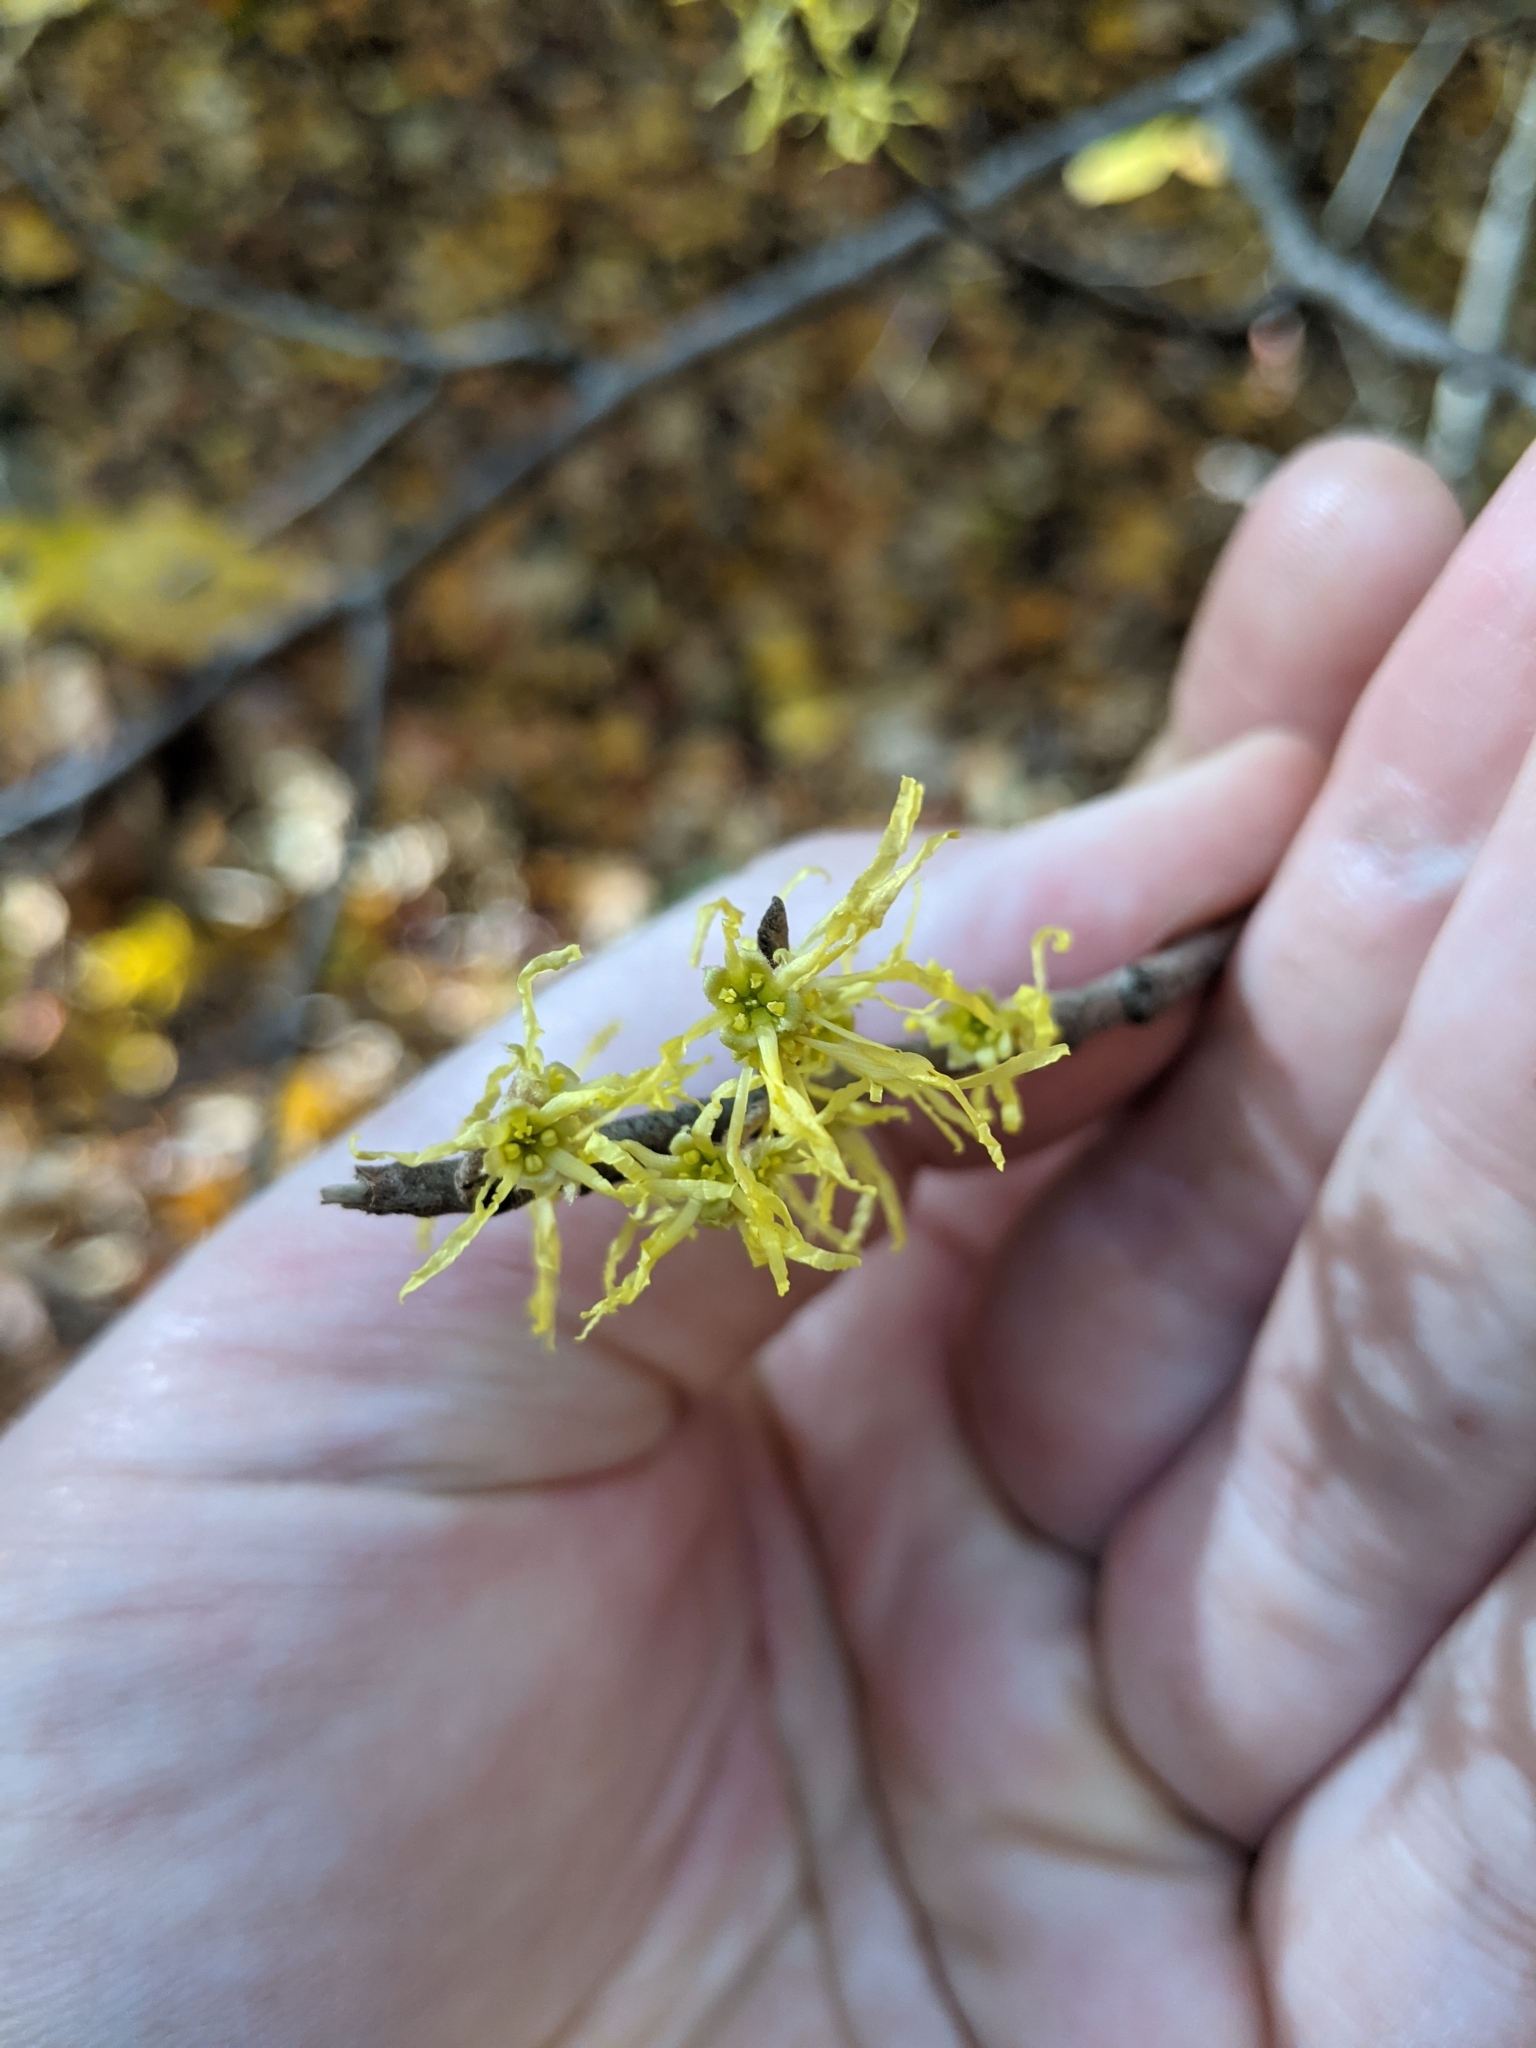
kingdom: Plantae
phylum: Tracheophyta
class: Magnoliopsida
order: Saxifragales
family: Hamamelidaceae
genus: Hamamelis
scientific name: Hamamelis virginiana
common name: Witch-hazel
